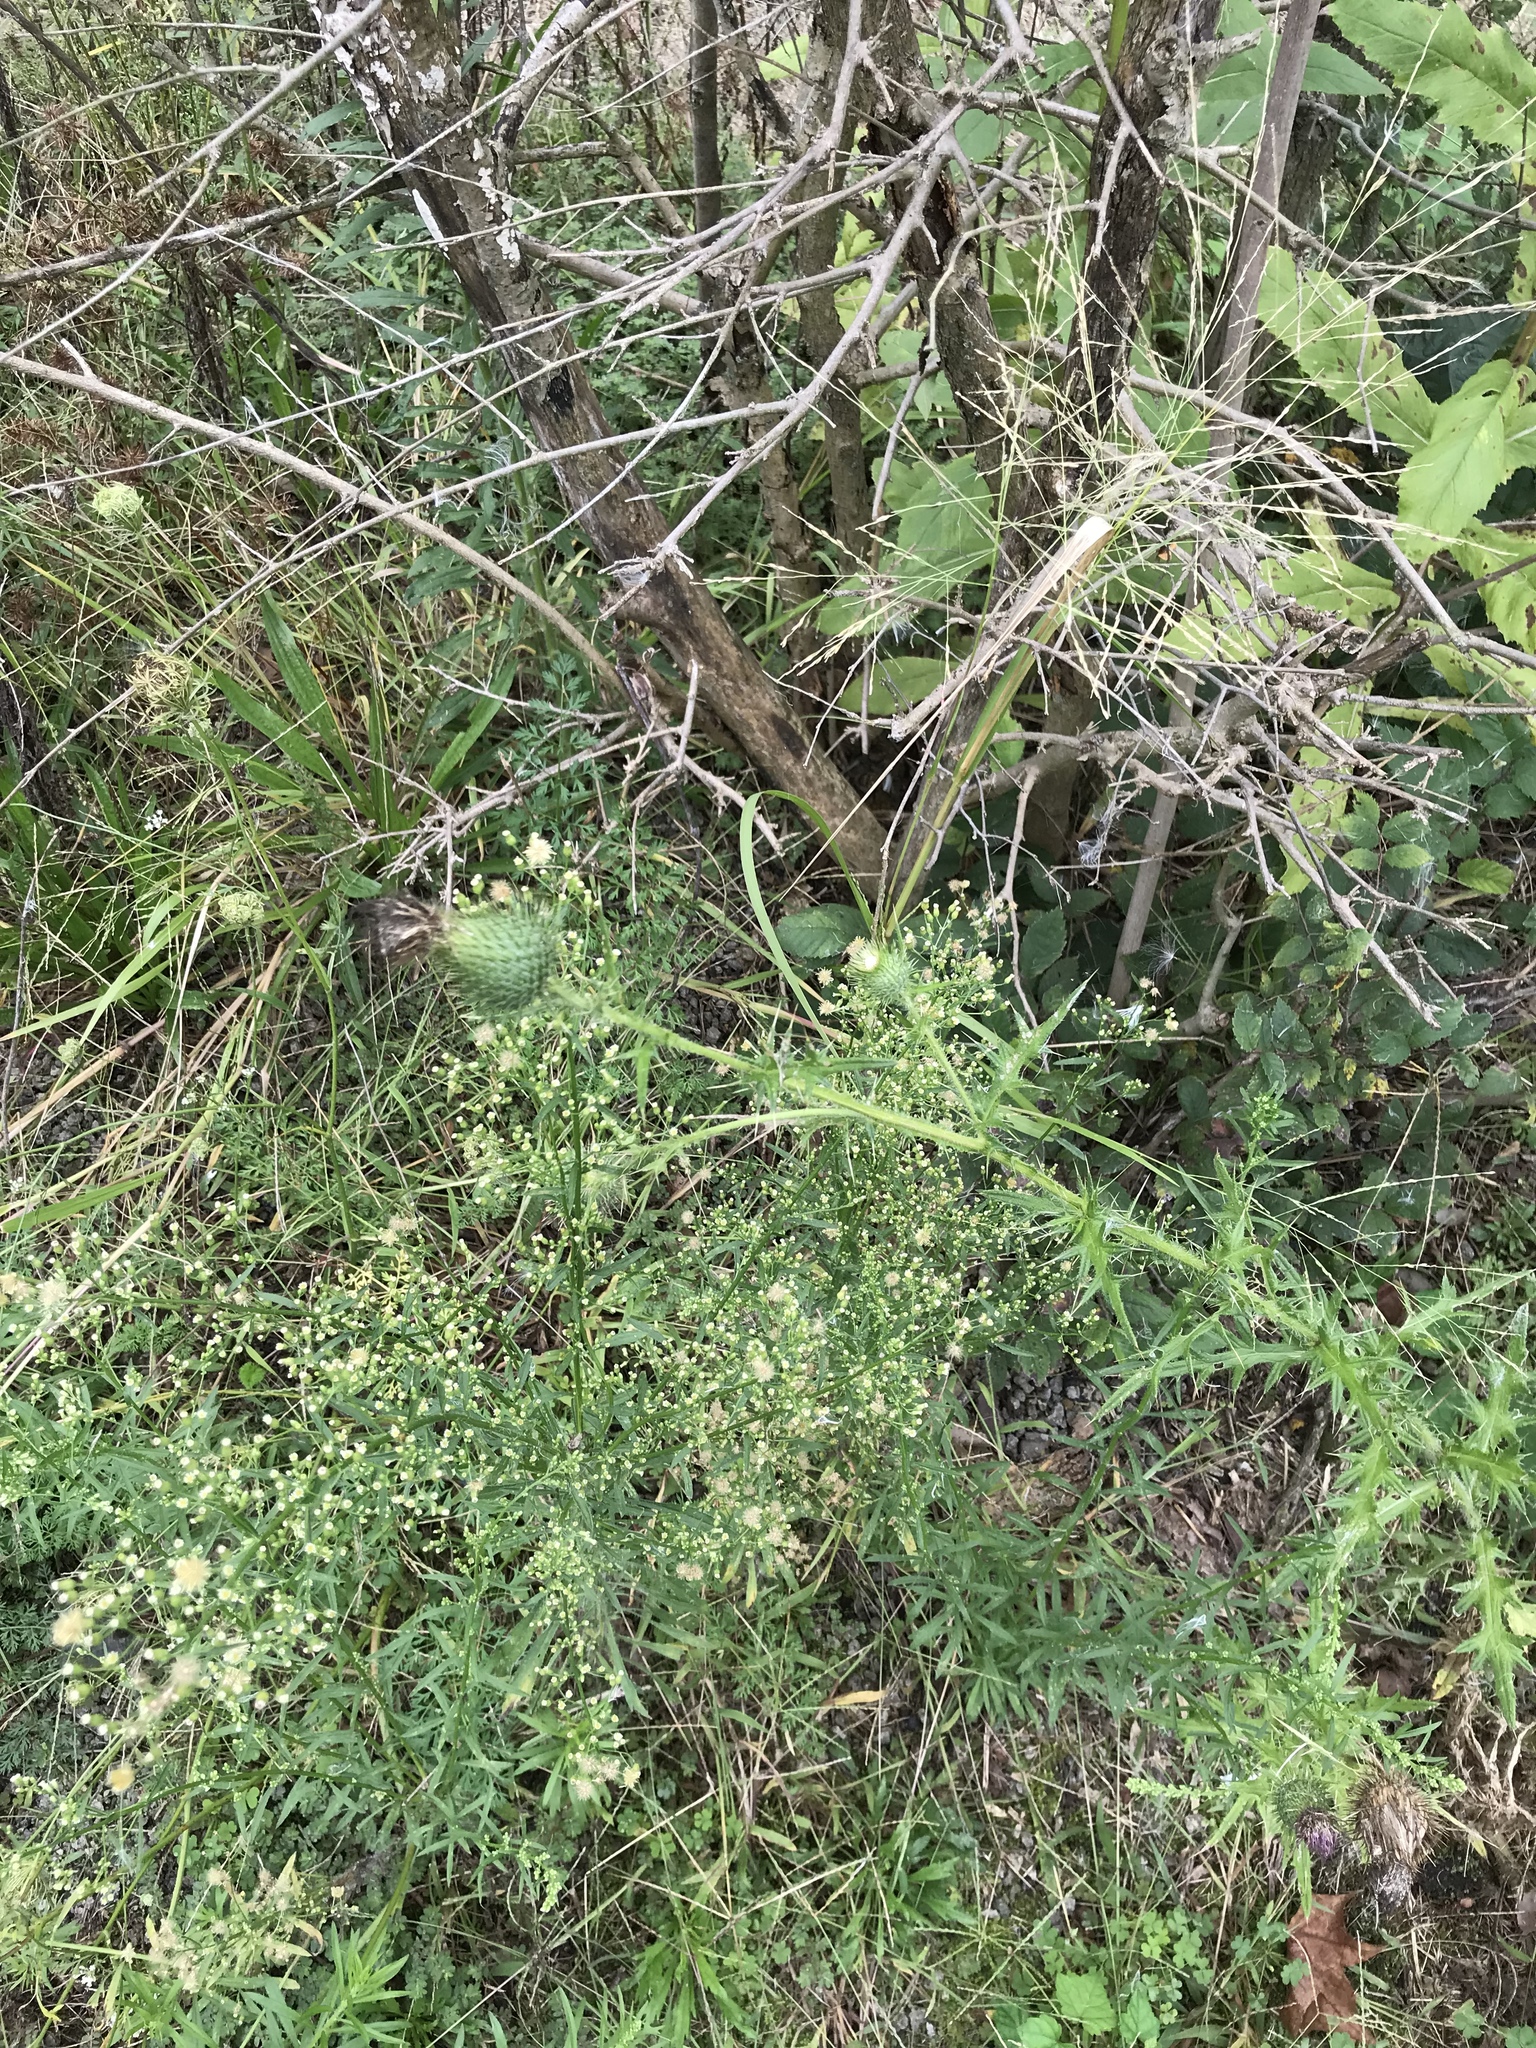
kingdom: Plantae
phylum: Tracheophyta
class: Magnoliopsida
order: Asterales
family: Asteraceae
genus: Cirsium
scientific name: Cirsium vulgare
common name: Bull thistle
